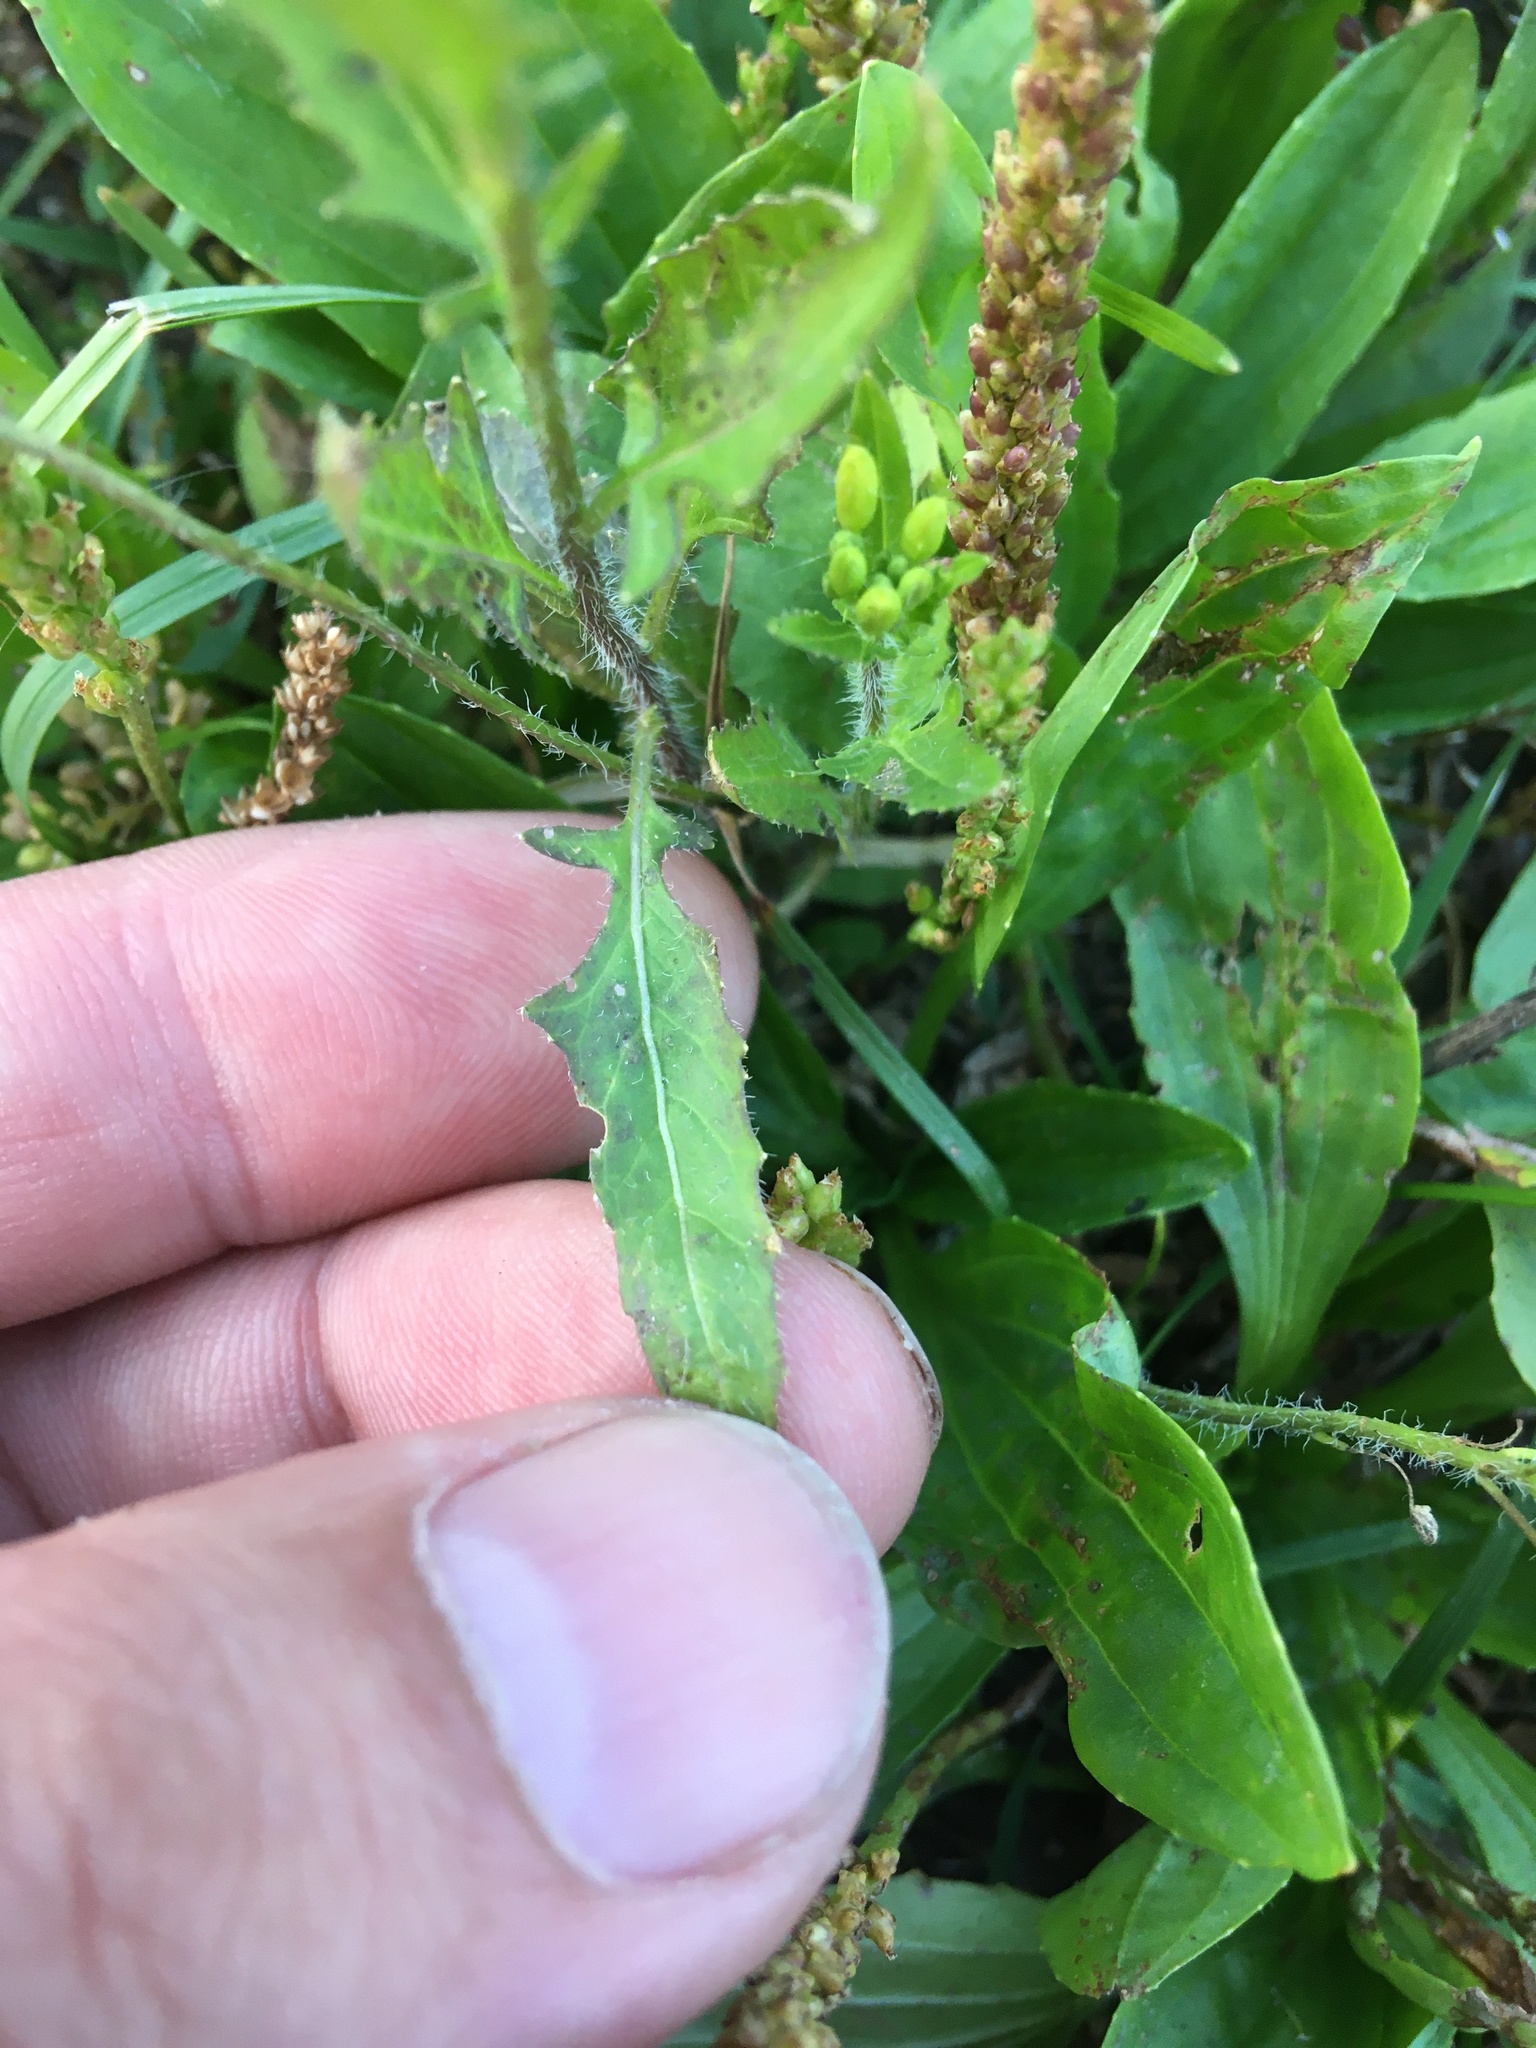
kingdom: Plantae
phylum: Tracheophyta
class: Magnoliopsida
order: Brassicales
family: Brassicaceae
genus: Sisymbrium
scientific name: Sisymbrium loeselii
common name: False london-rocket
